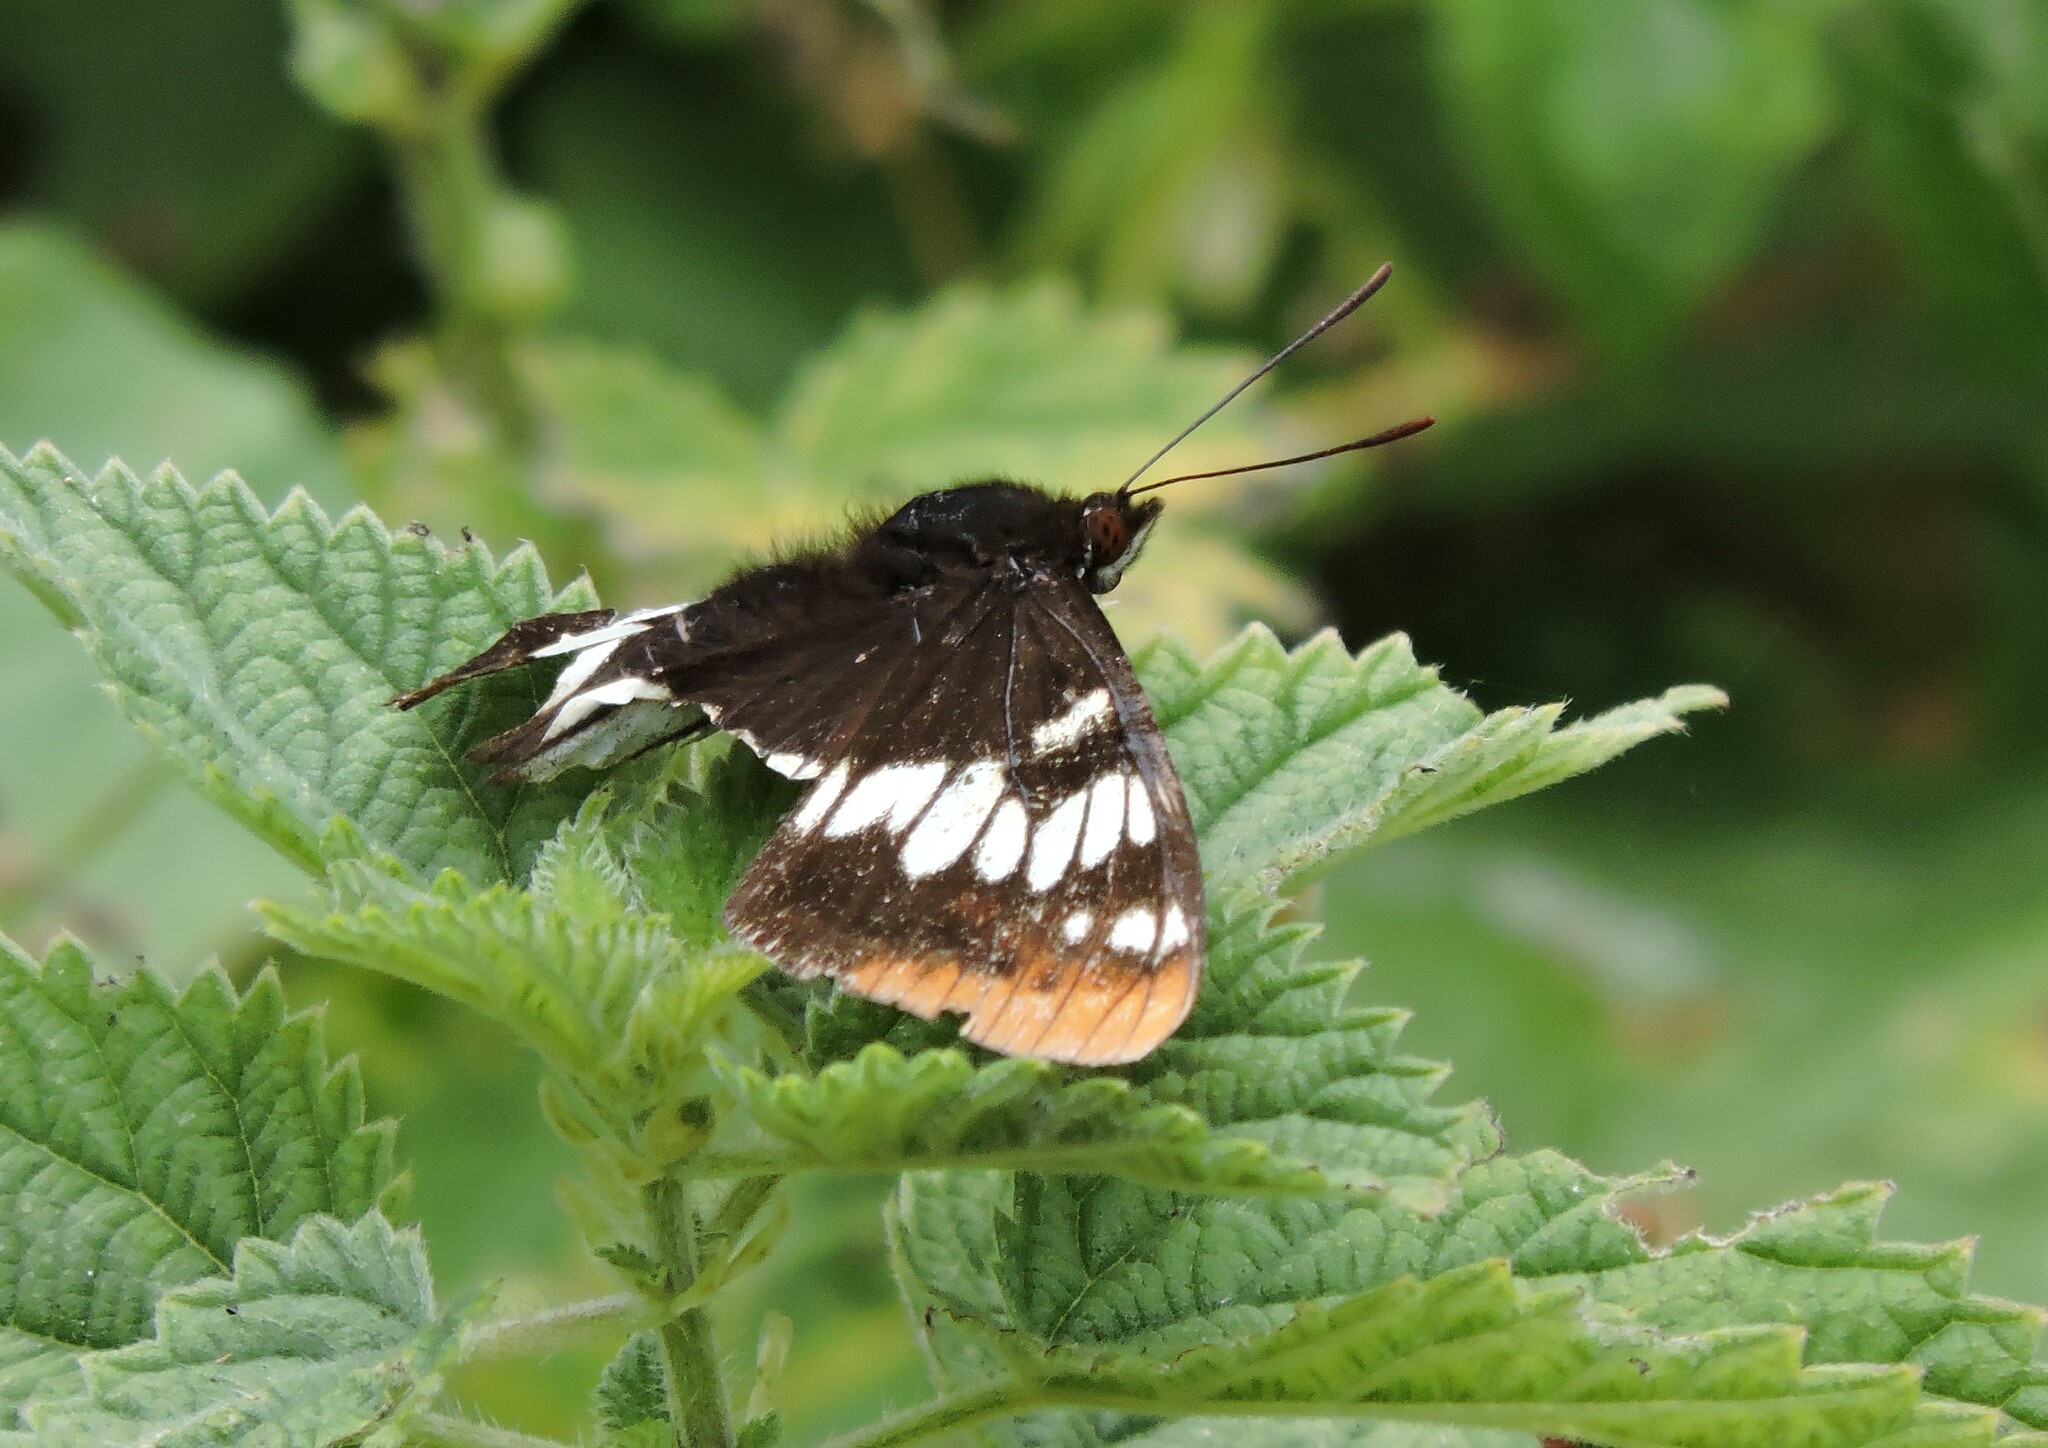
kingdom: Animalia
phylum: Arthropoda
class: Insecta
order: Lepidoptera
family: Nymphalidae
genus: Limenitis
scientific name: Limenitis lorquini
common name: Lorquin's admiral
